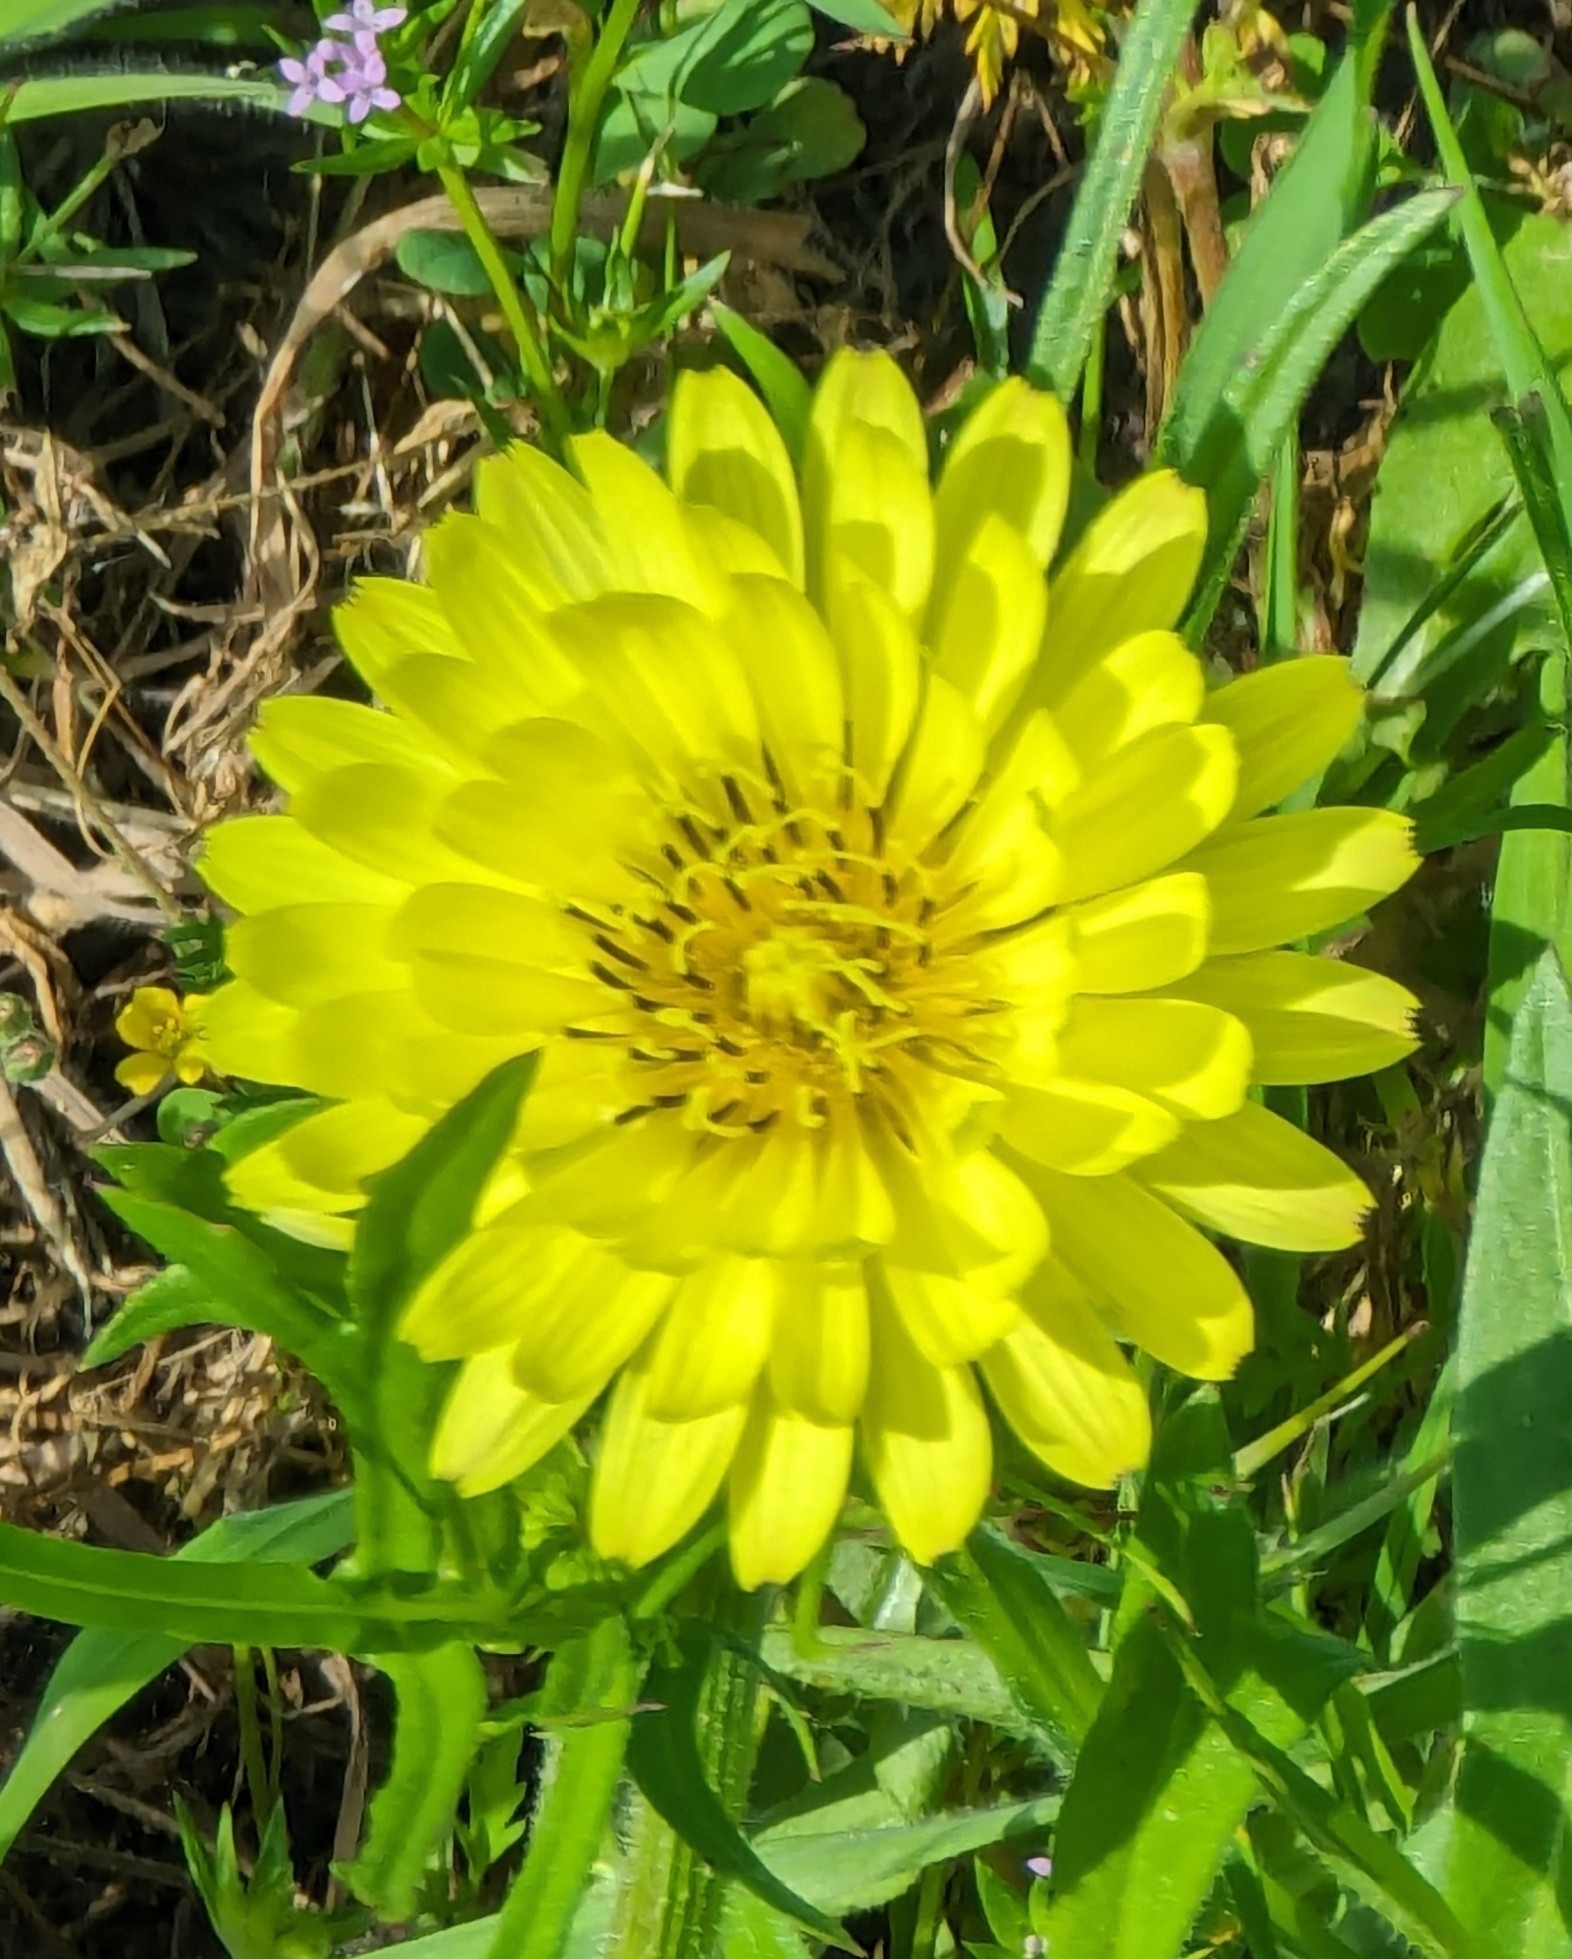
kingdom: Plantae
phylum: Tracheophyta
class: Magnoliopsida
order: Asterales
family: Asteraceae
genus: Pyrrhopappus
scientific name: Pyrrhopappus pauciflorus
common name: Texas false dandelion
